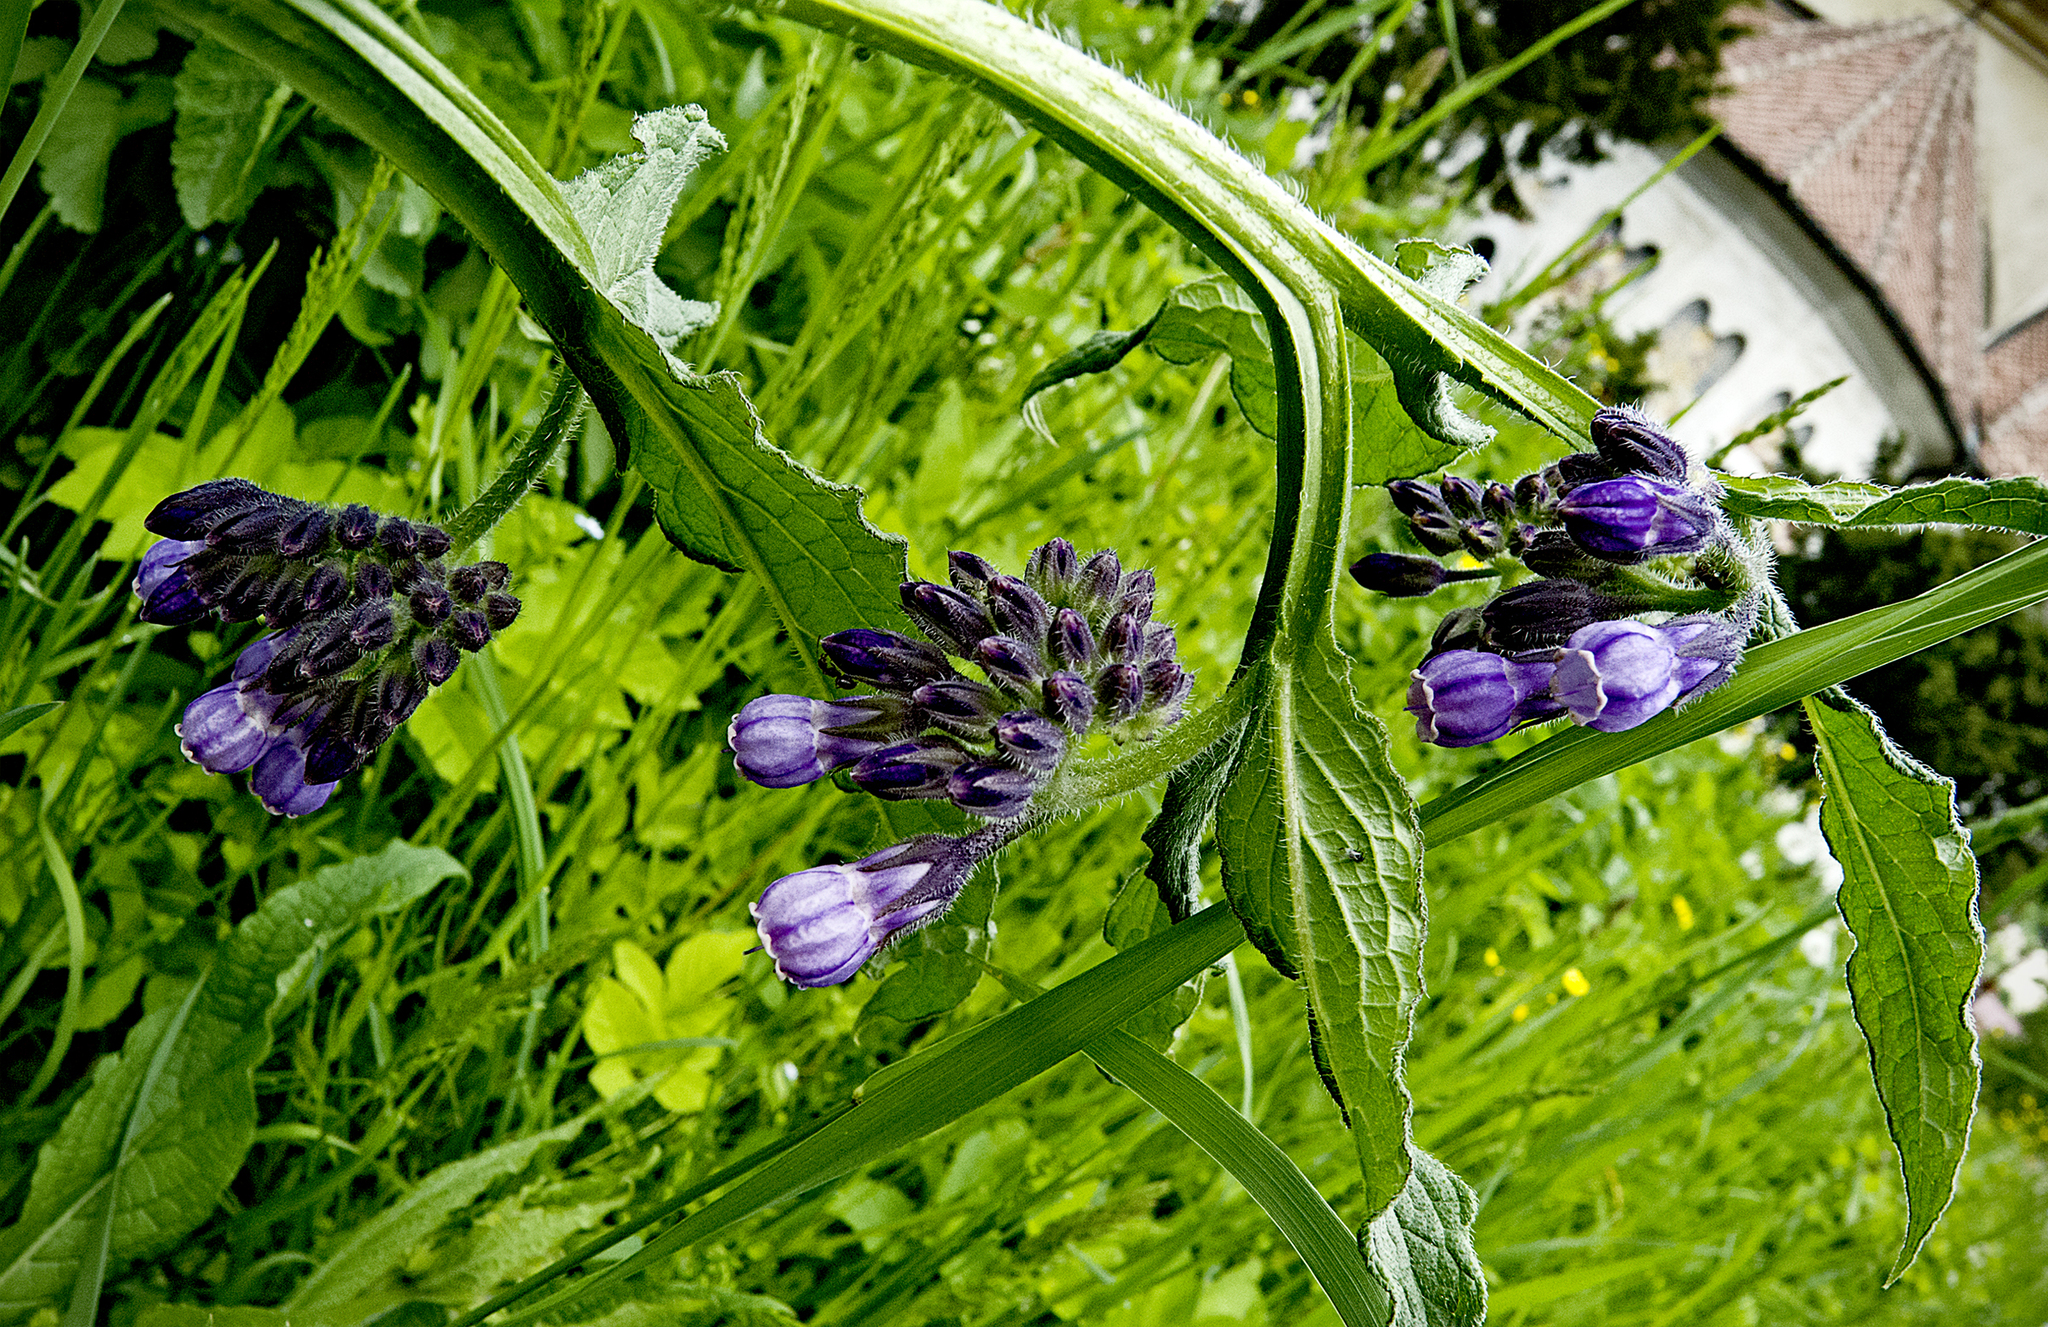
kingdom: Plantae
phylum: Tracheophyta
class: Magnoliopsida
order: Boraginales
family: Boraginaceae
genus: Symphytum
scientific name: Symphytum officinale
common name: Common comfrey
